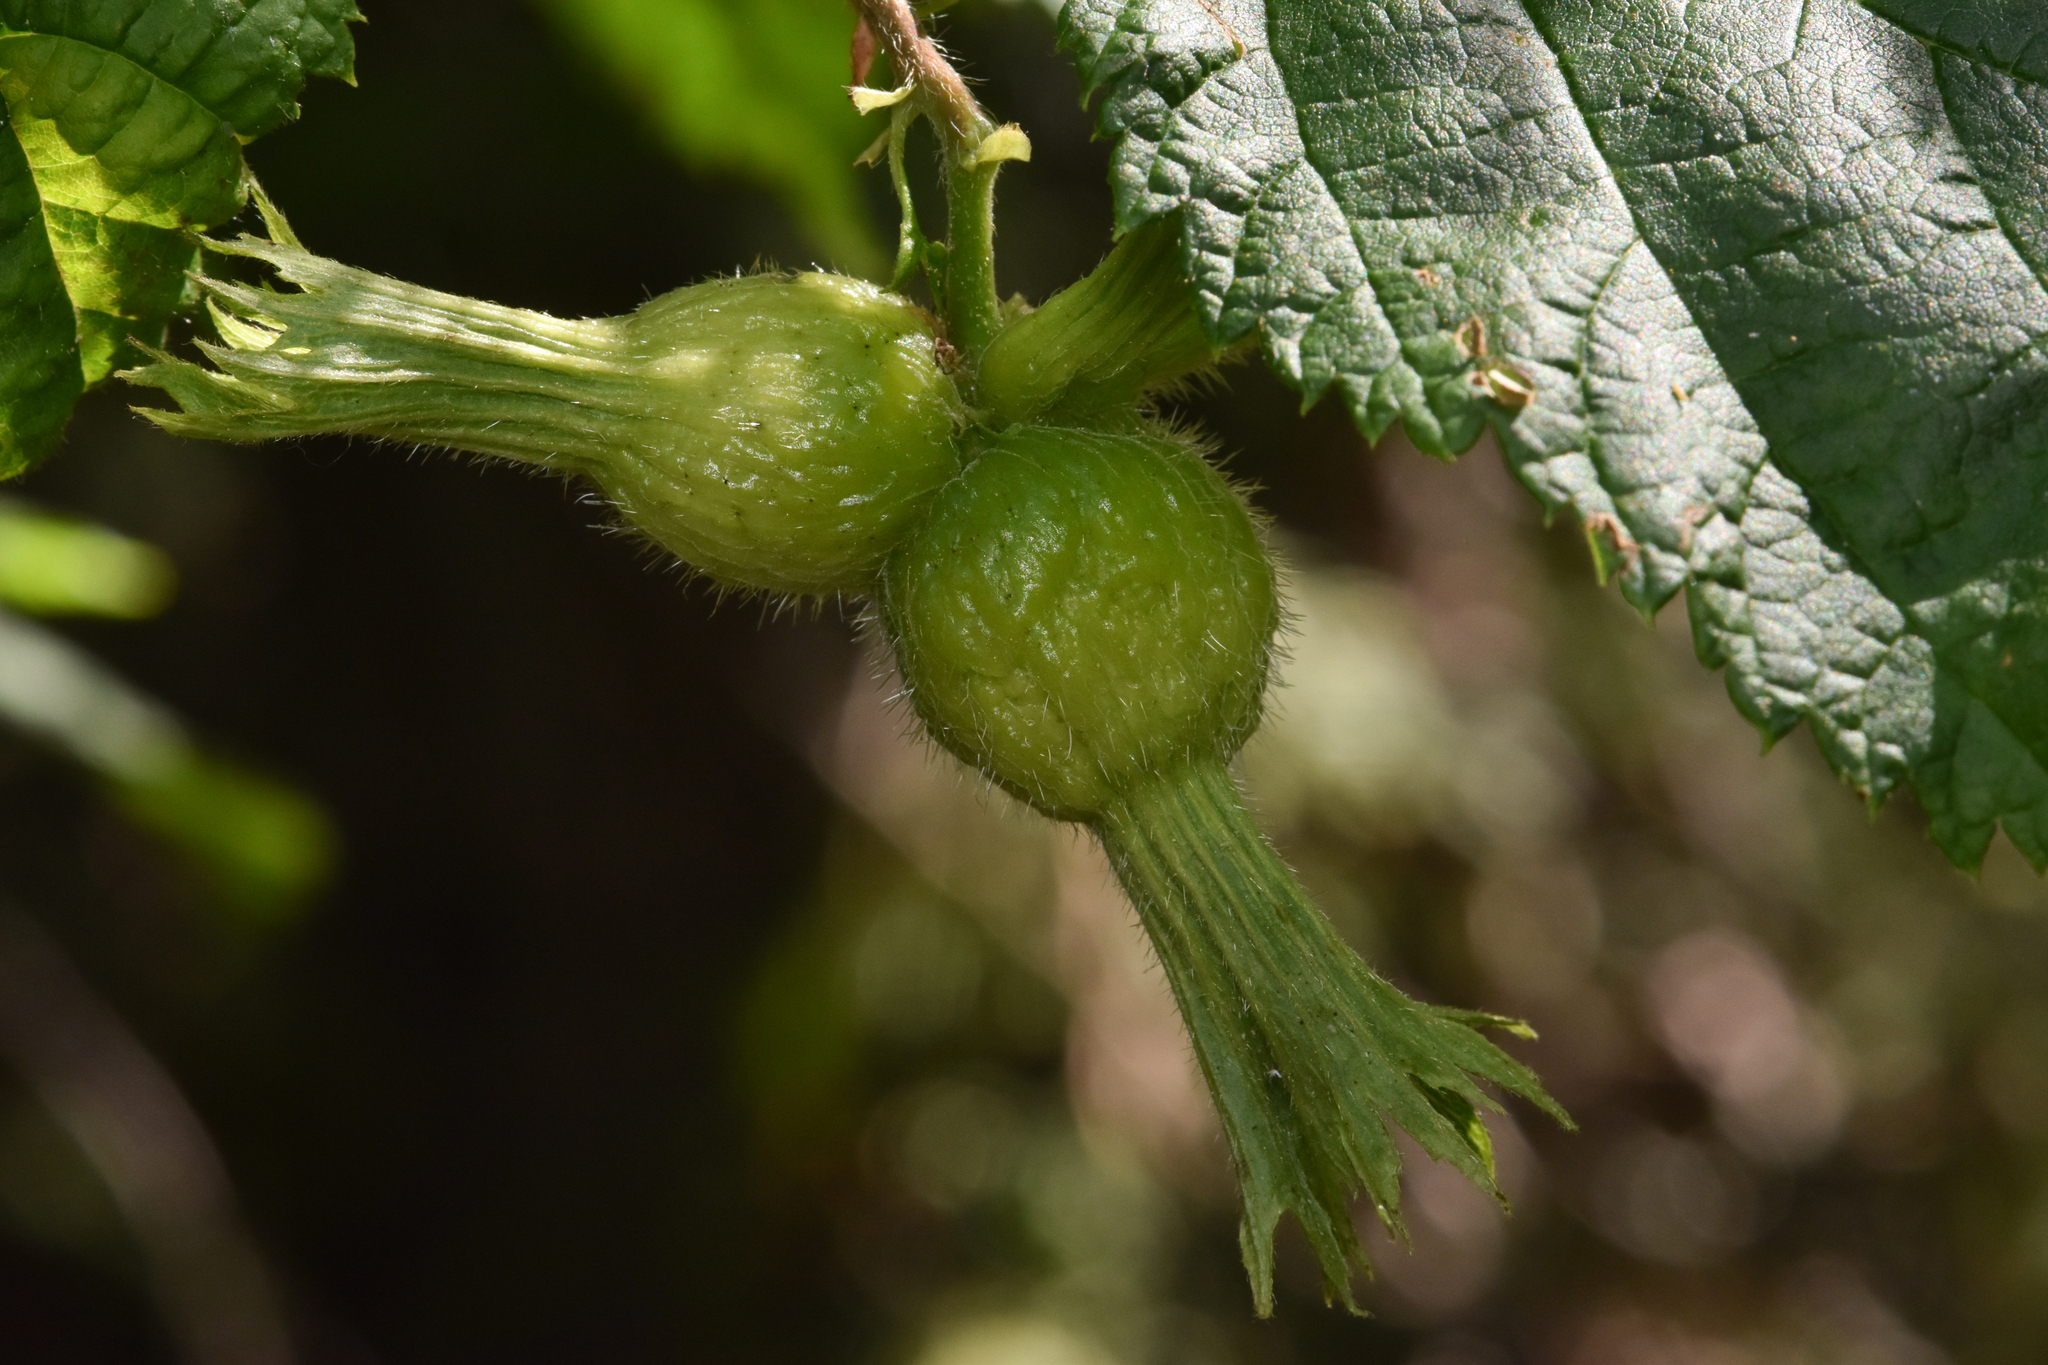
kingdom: Plantae
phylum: Tracheophyta
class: Magnoliopsida
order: Fagales
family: Betulaceae
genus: Corylus
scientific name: Corylus cornuta
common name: Beaked hazel
